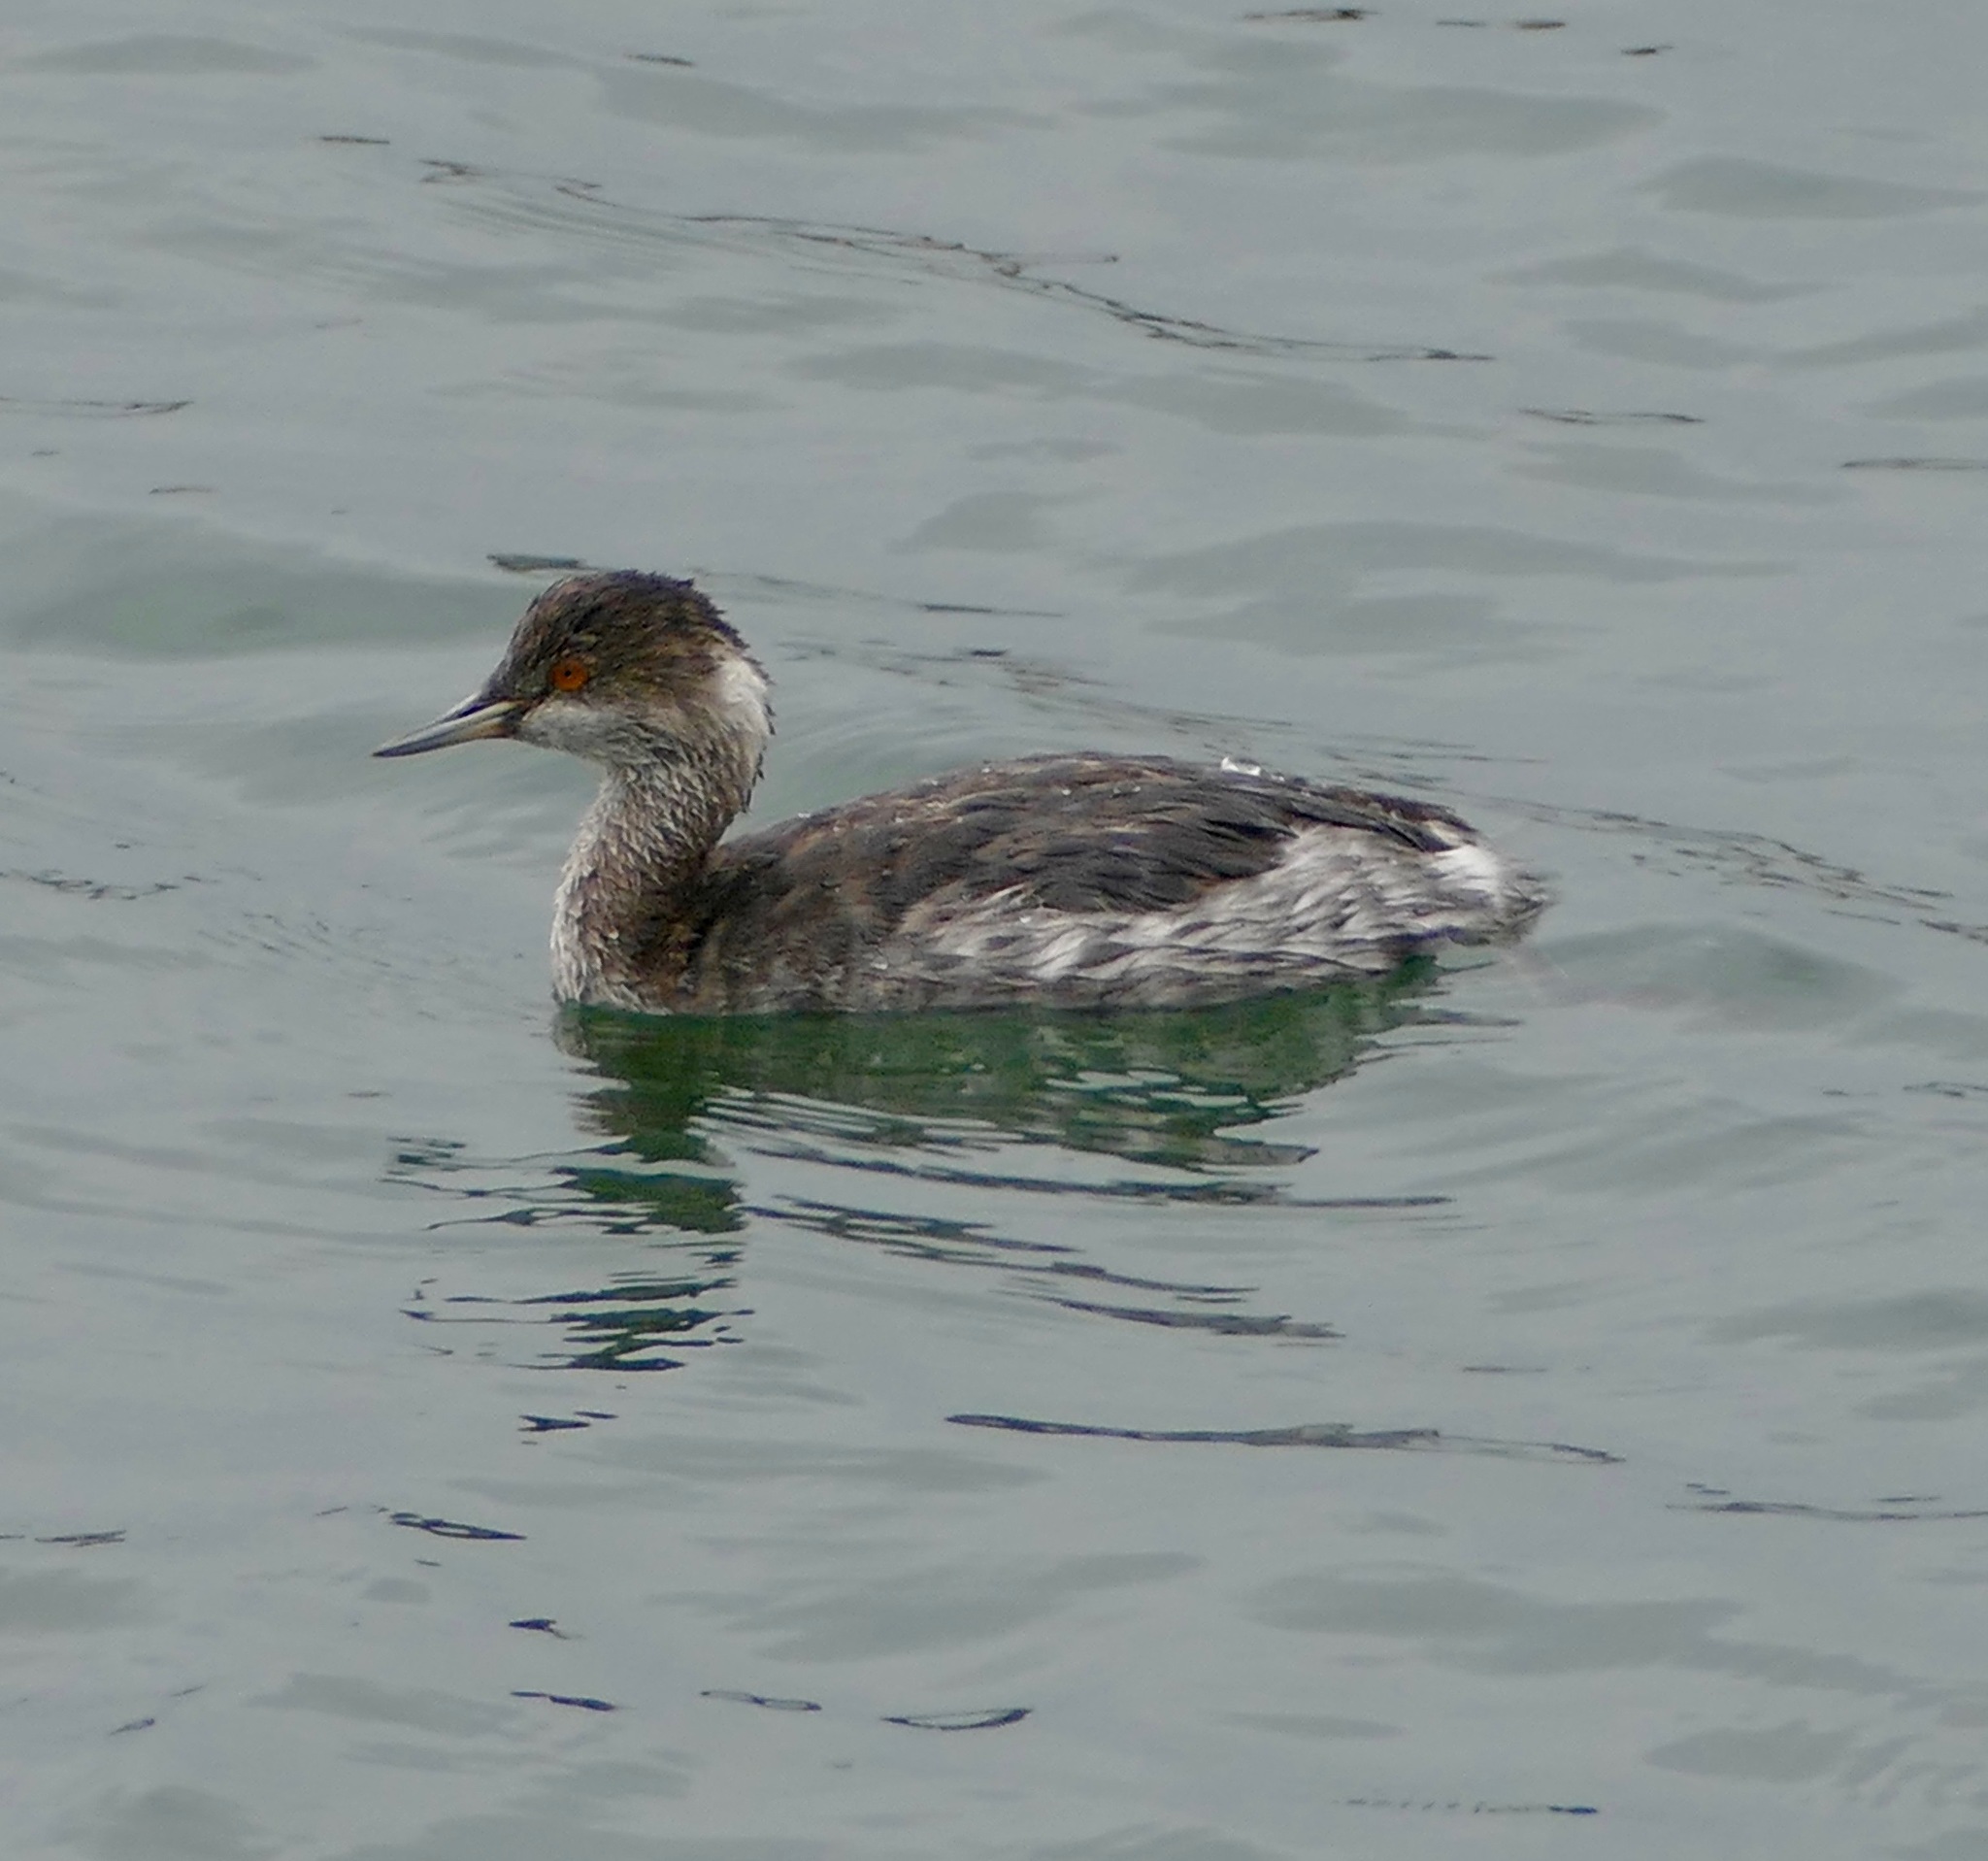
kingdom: Animalia
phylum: Chordata
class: Aves
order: Podicipediformes
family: Podicipedidae
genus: Podiceps
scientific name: Podiceps nigricollis
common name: Black-necked grebe
